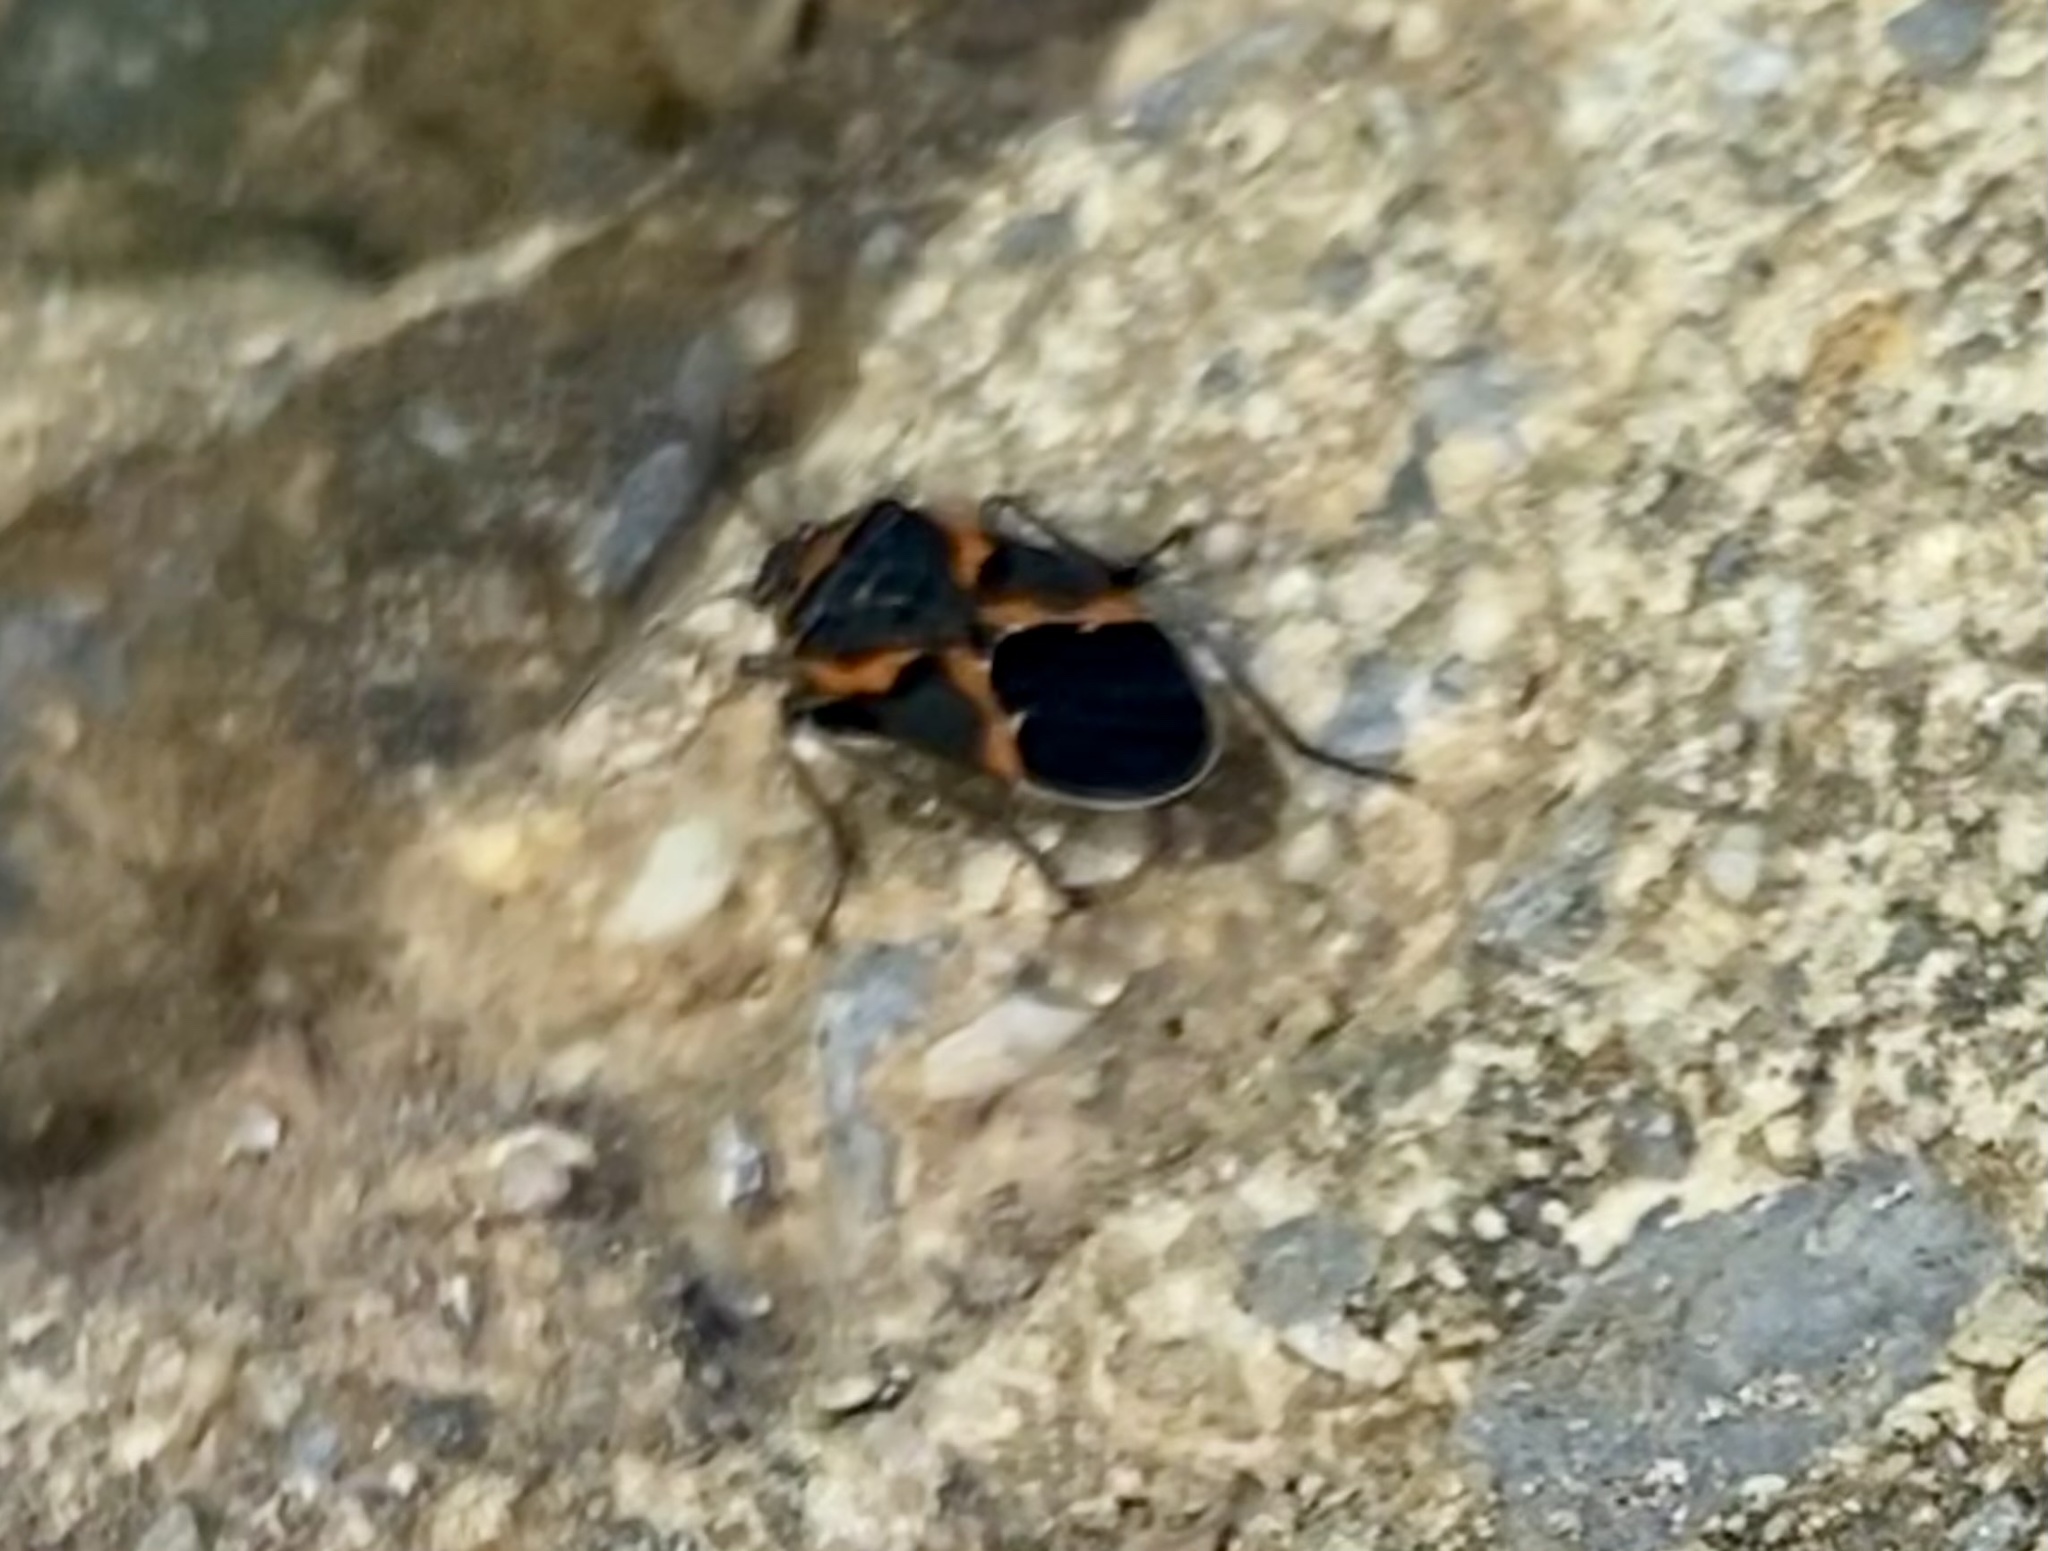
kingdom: Animalia
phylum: Arthropoda
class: Insecta
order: Hemiptera
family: Lygaeidae
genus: Lygaeus
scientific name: Lygaeus kalmii
